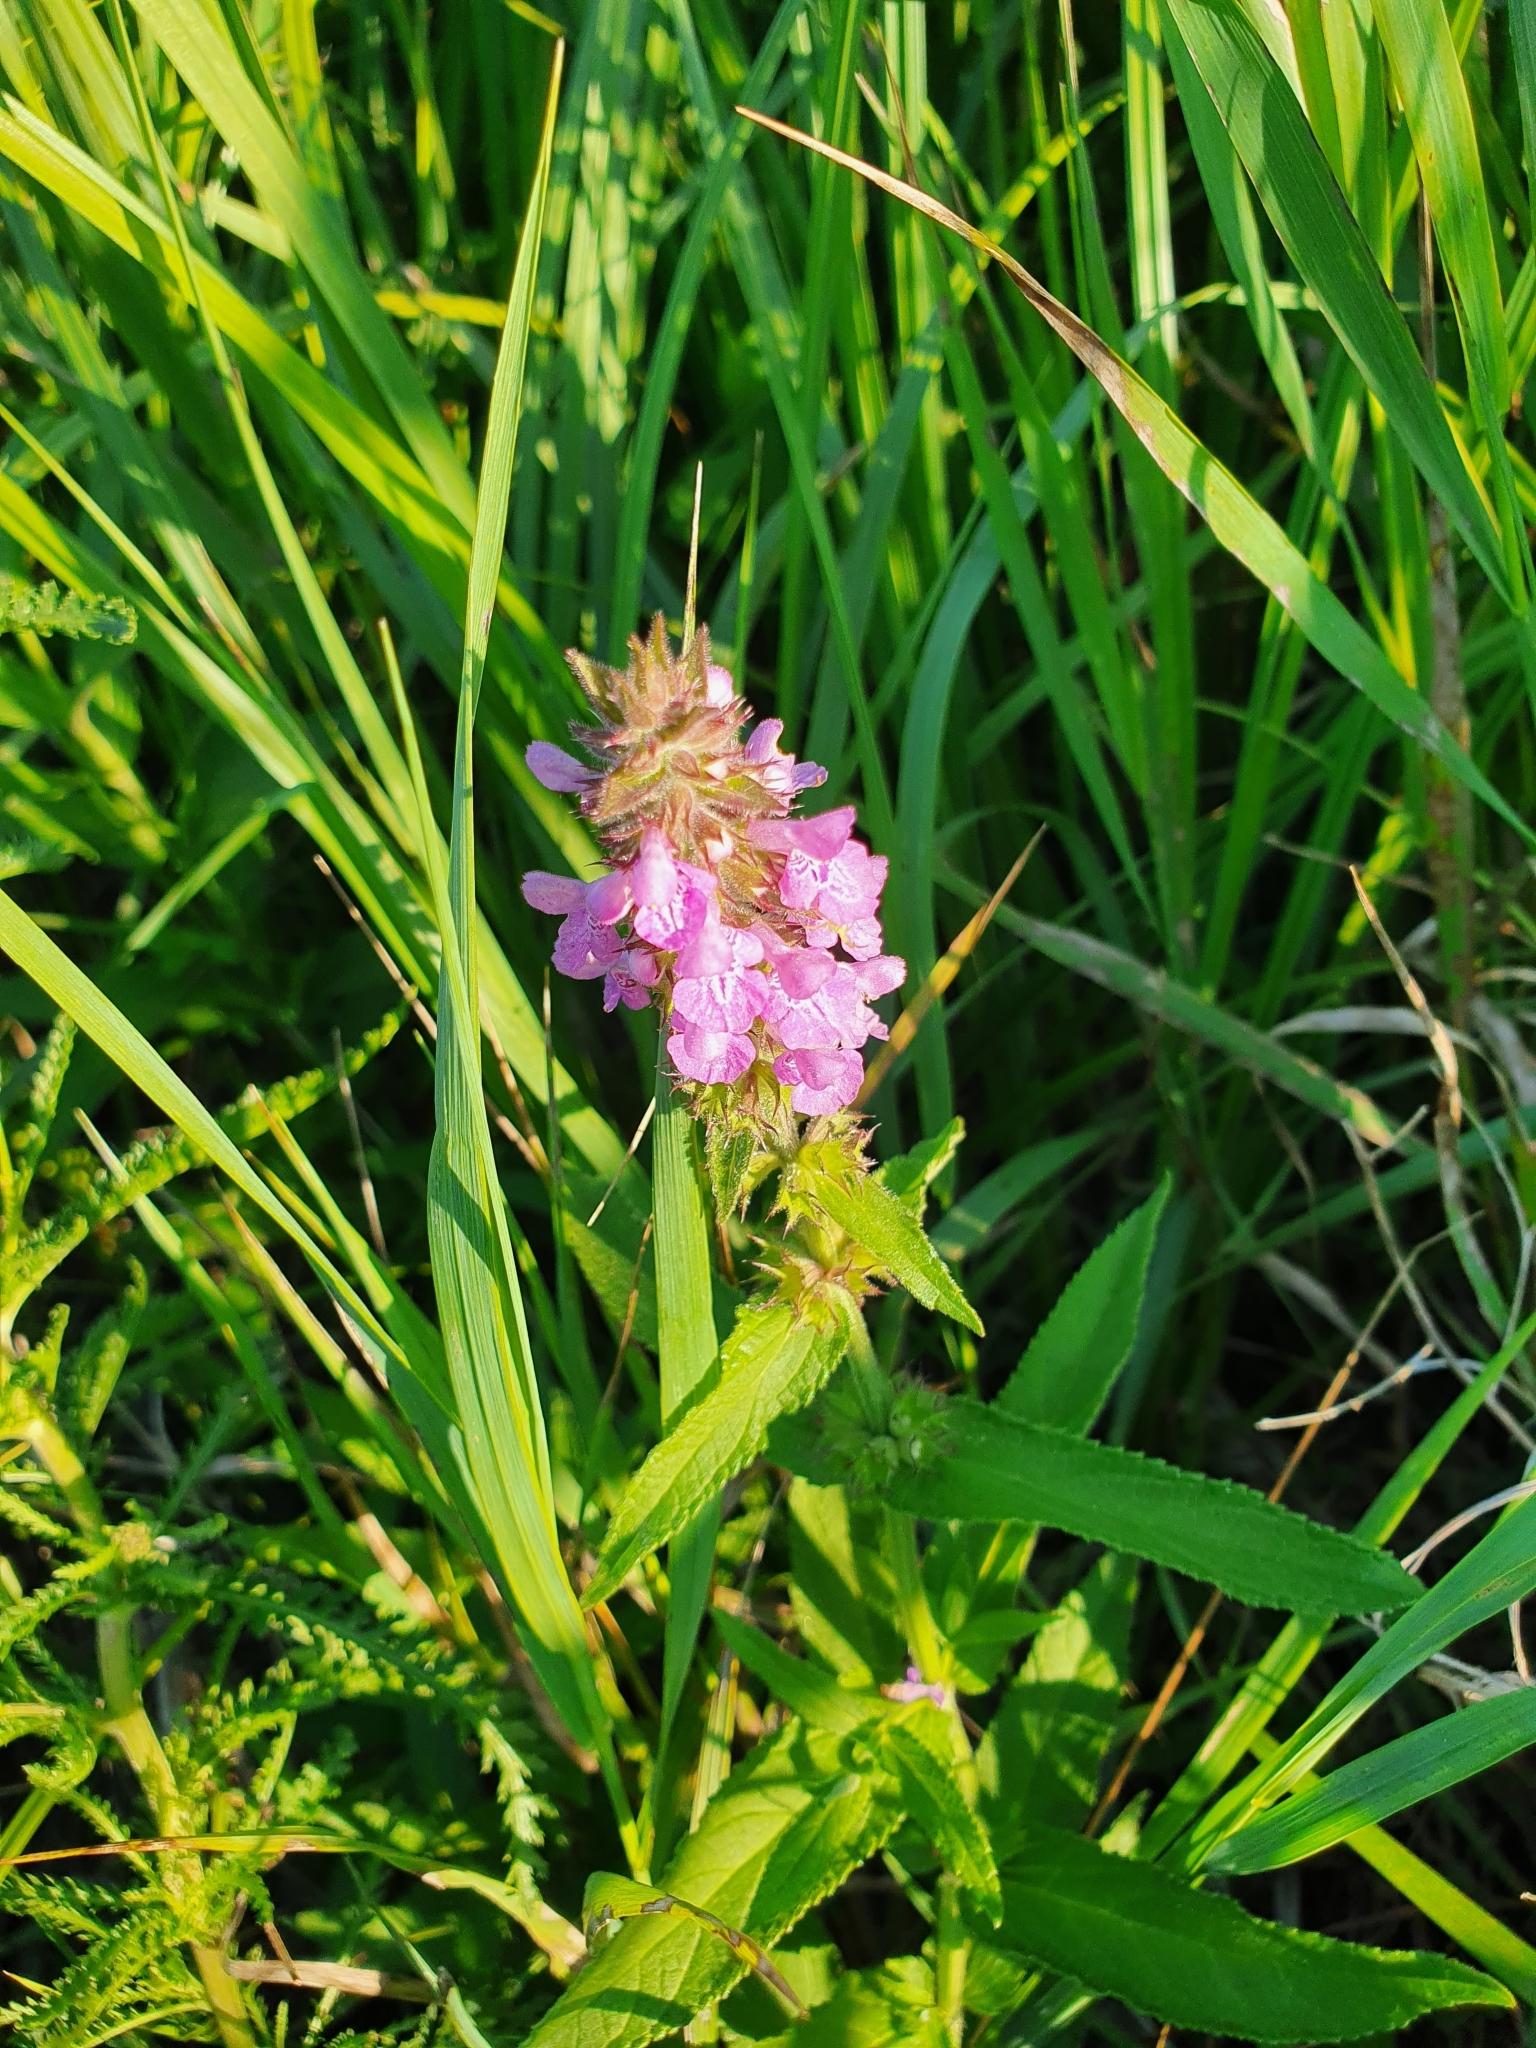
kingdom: Plantae
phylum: Tracheophyta
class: Magnoliopsida
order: Lamiales
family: Lamiaceae
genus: Stachys
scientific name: Stachys palustris
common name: Marsh woundwort
